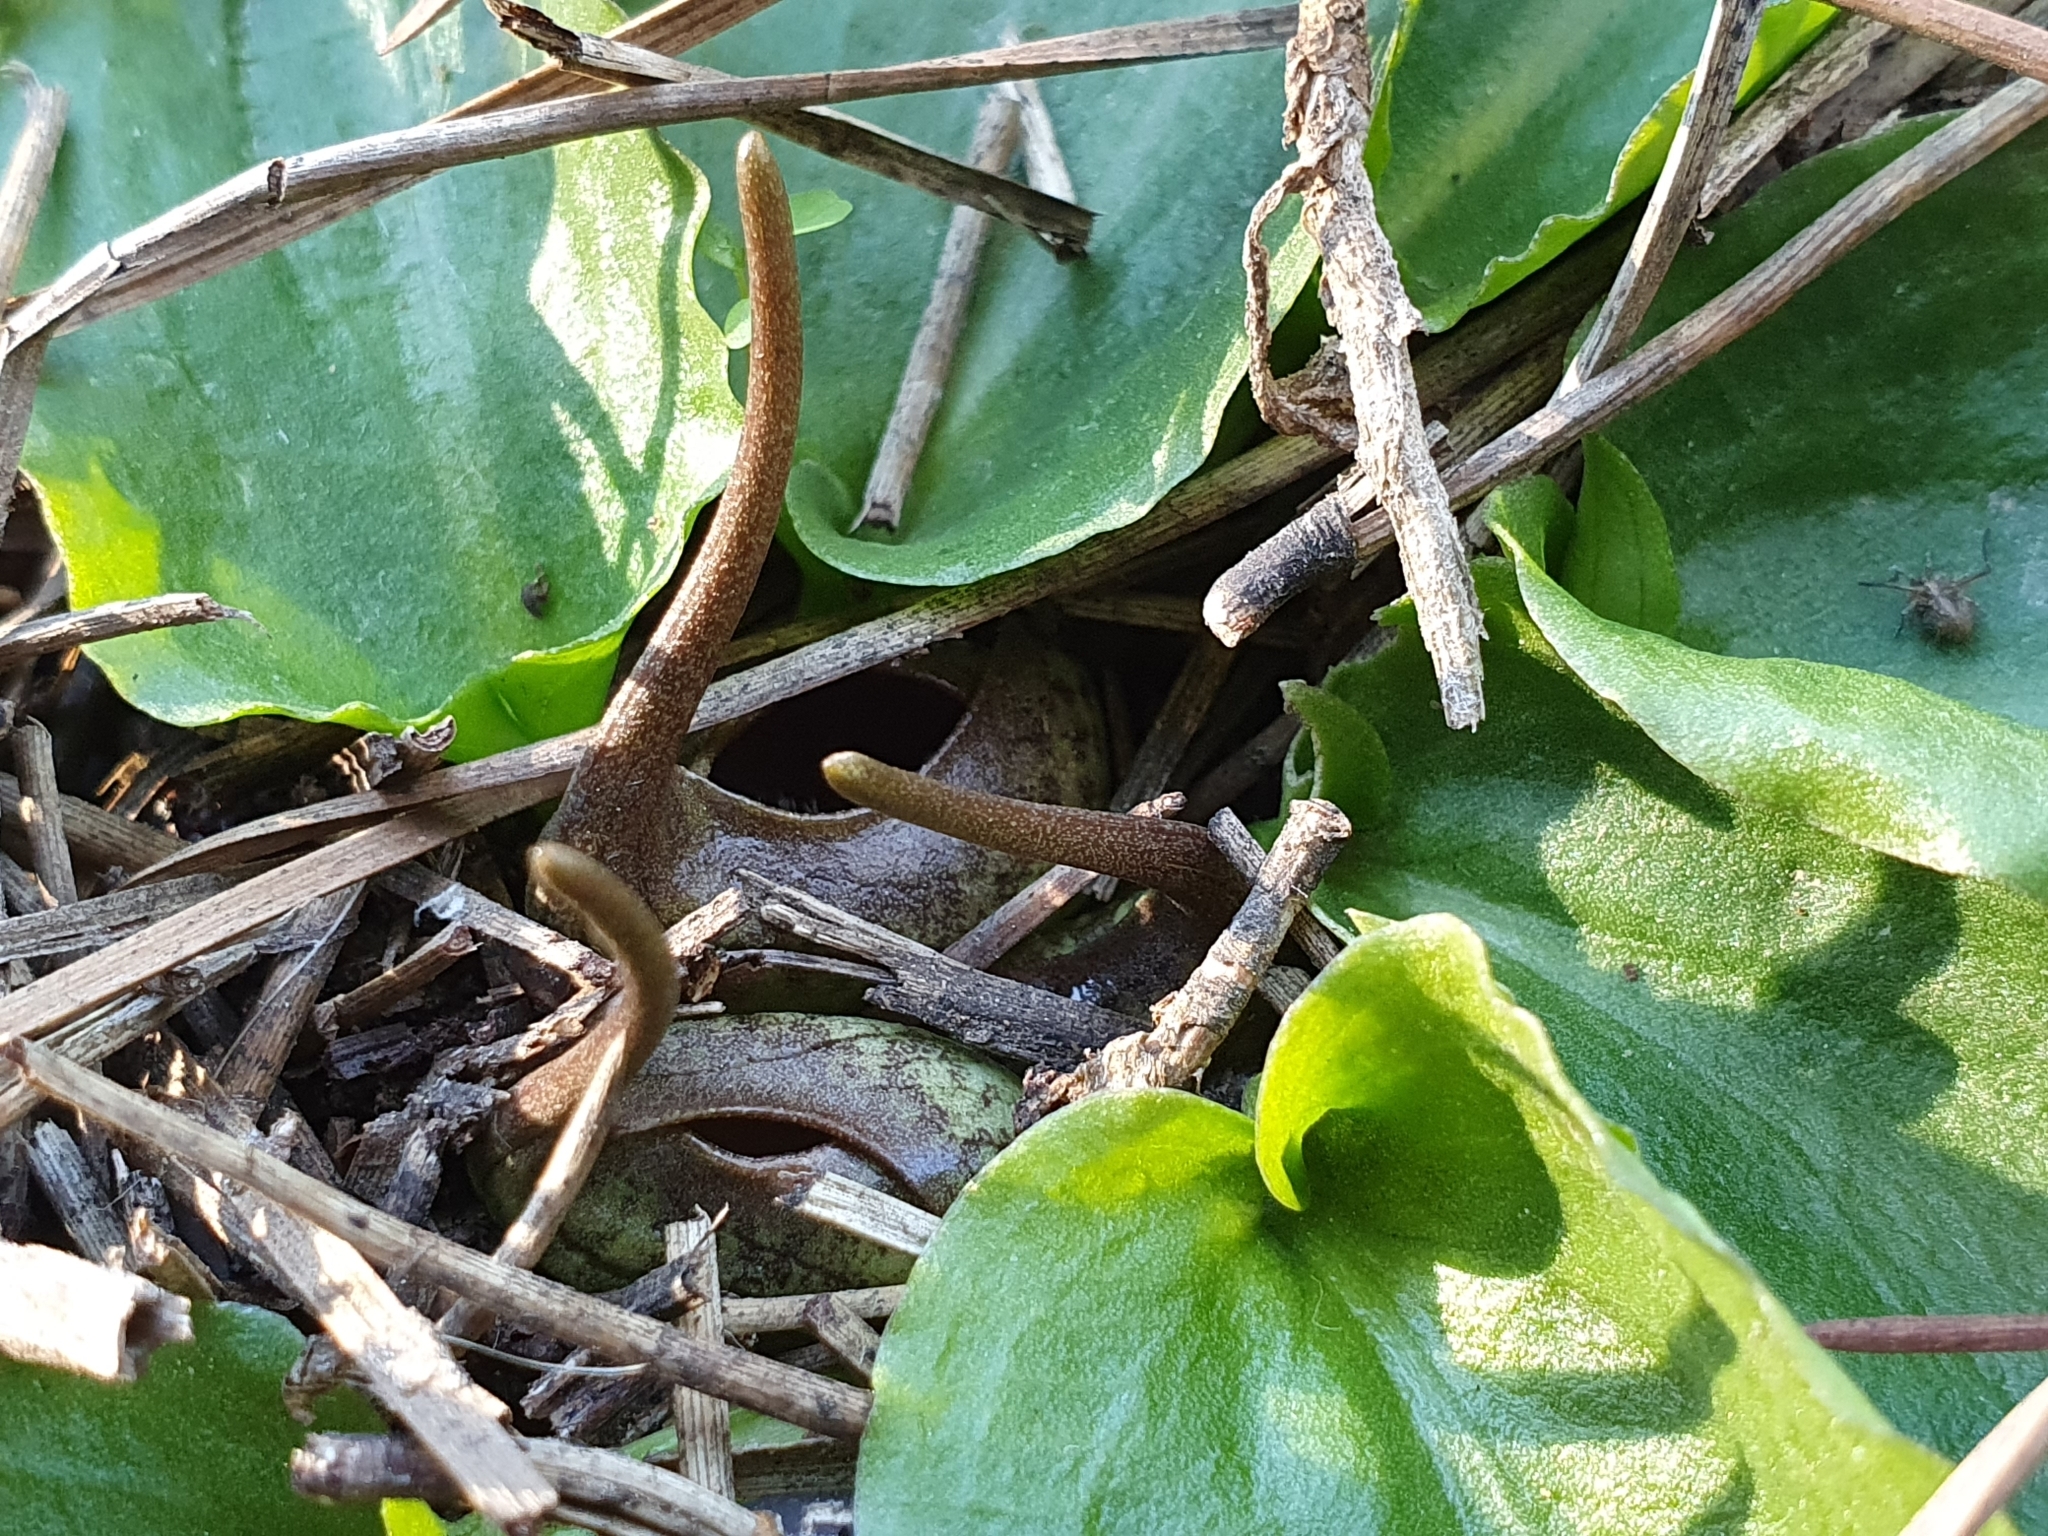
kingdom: Plantae
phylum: Tracheophyta
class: Liliopsida
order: Alismatales
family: Araceae
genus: Ambrosina
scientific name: Ambrosina bassii
